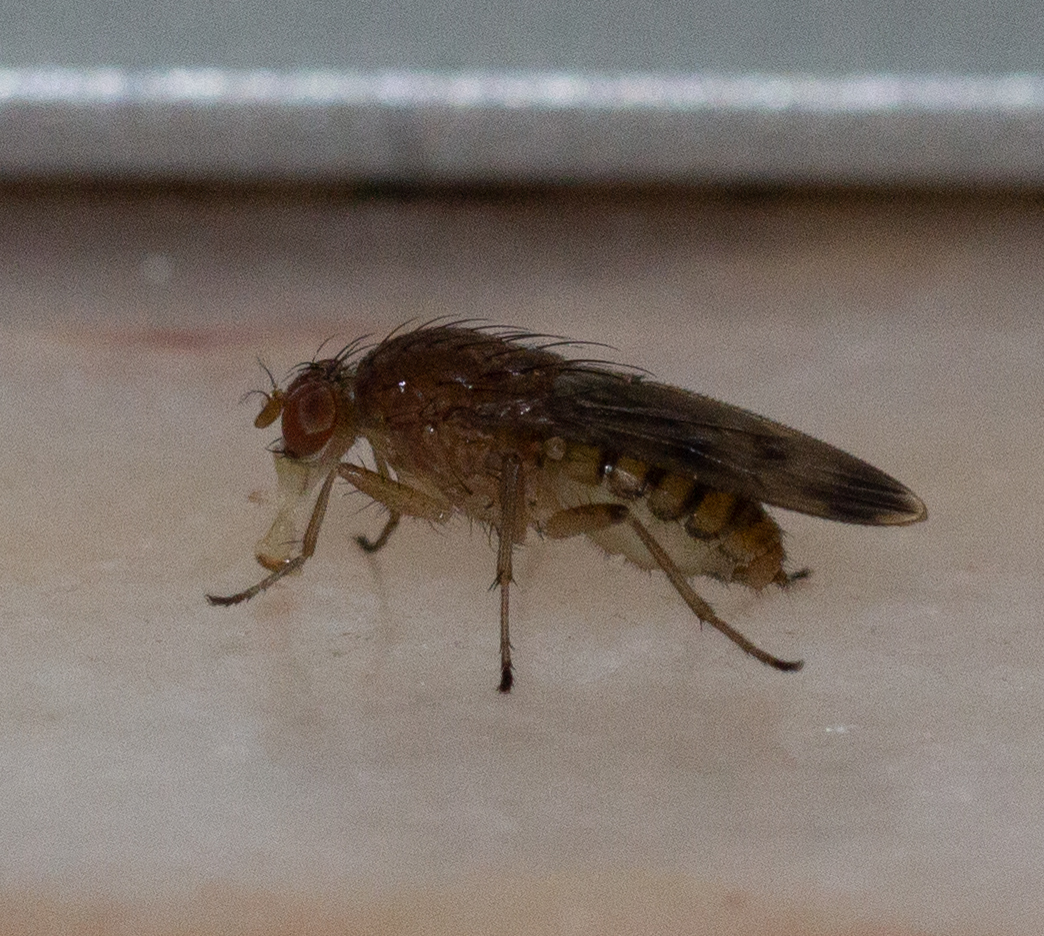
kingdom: Animalia
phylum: Arthropoda
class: Insecta
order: Diptera
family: Heleomyzidae
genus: Suillia
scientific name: Suillia variegata
